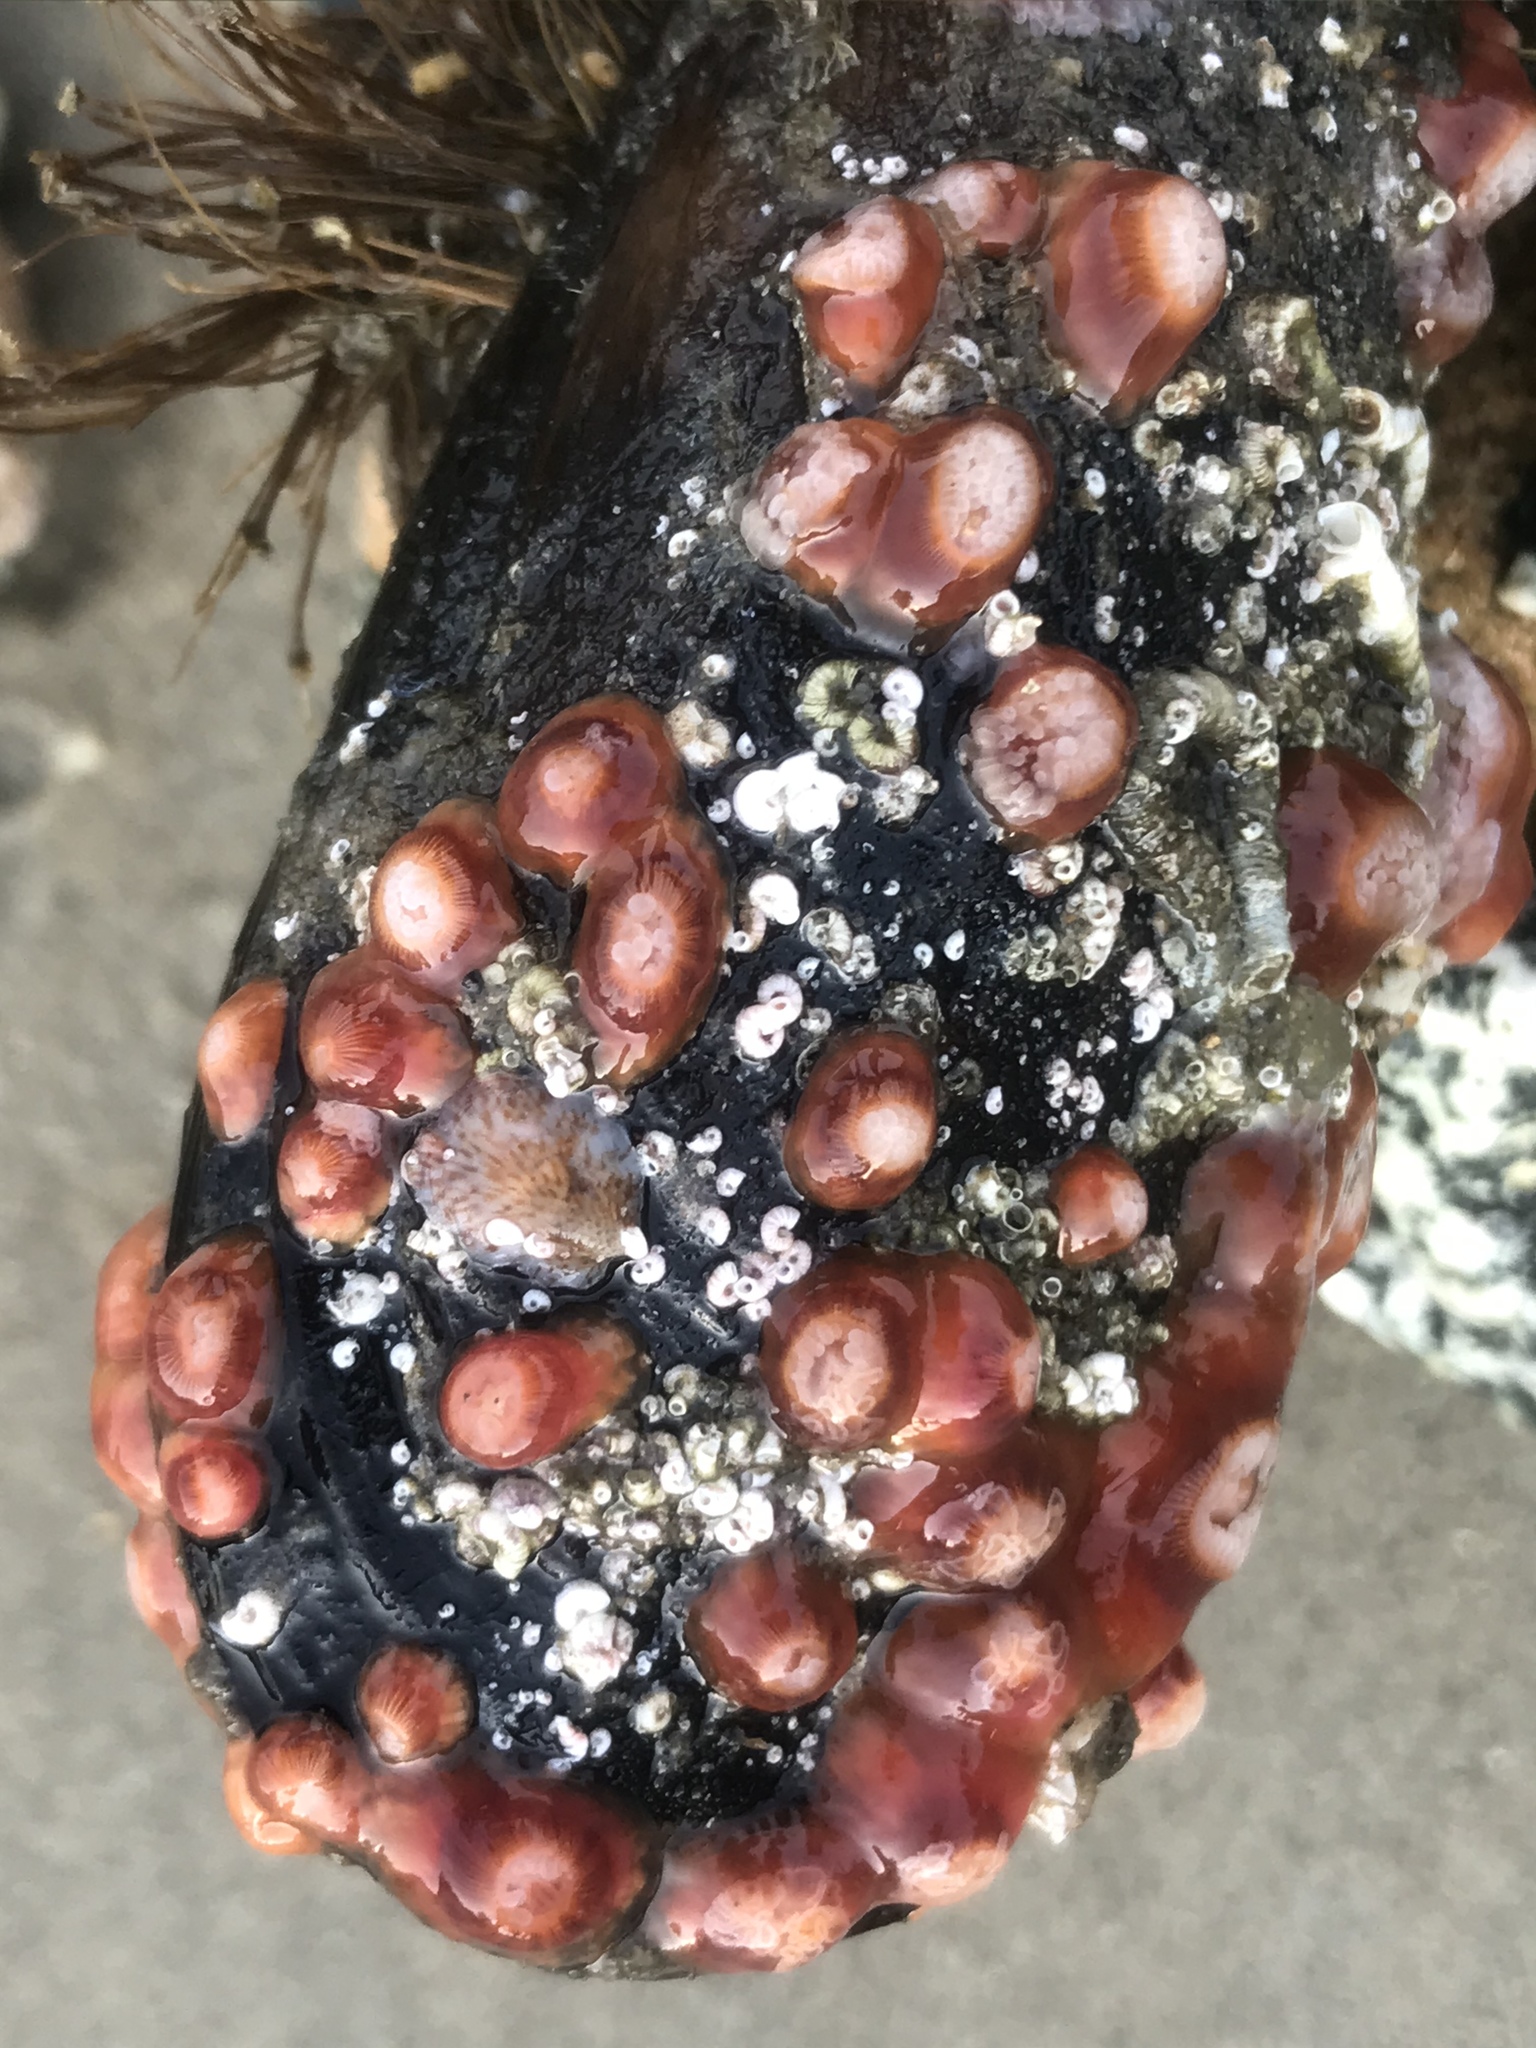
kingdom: Animalia
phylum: Cnidaria
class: Anthozoa
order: Corallimorpharia
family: Corallimorphidae
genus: Corynactis
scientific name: Corynactis californica
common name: Strawberry corallimorpharian
